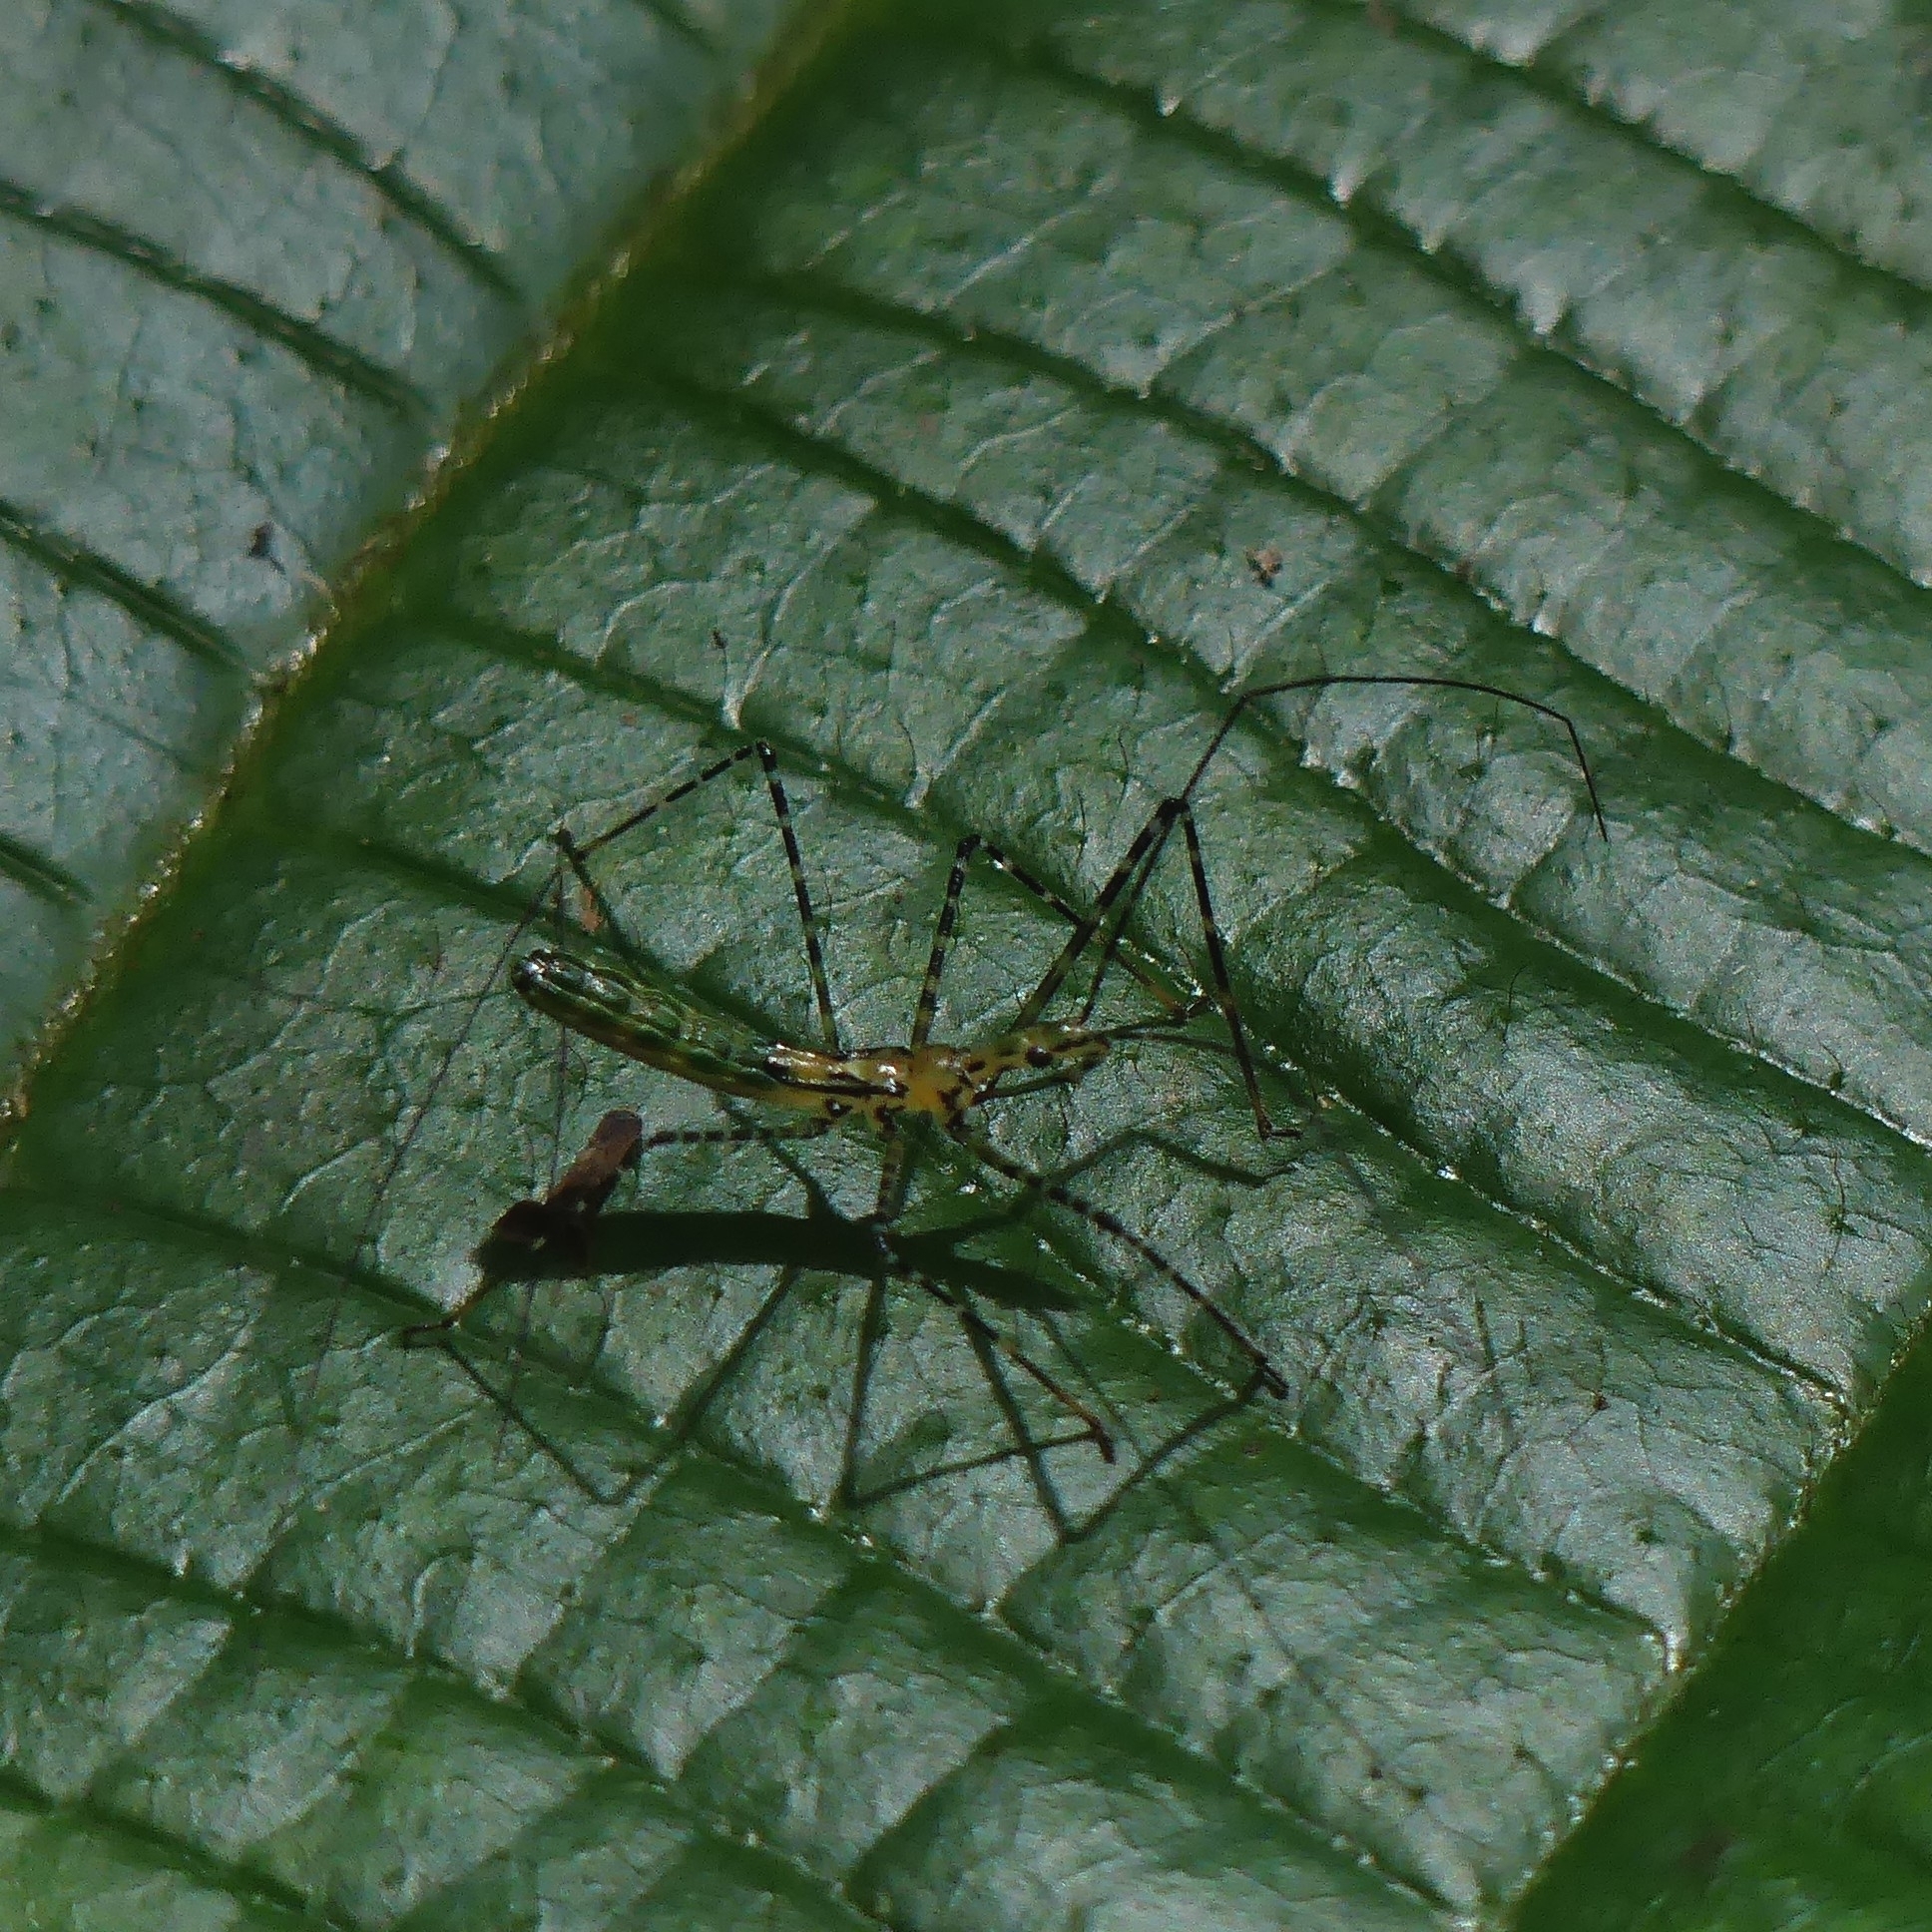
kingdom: Animalia
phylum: Arthropoda
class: Insecta
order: Hemiptera
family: Reduviidae
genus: Zelus
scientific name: Zelus annulosus
